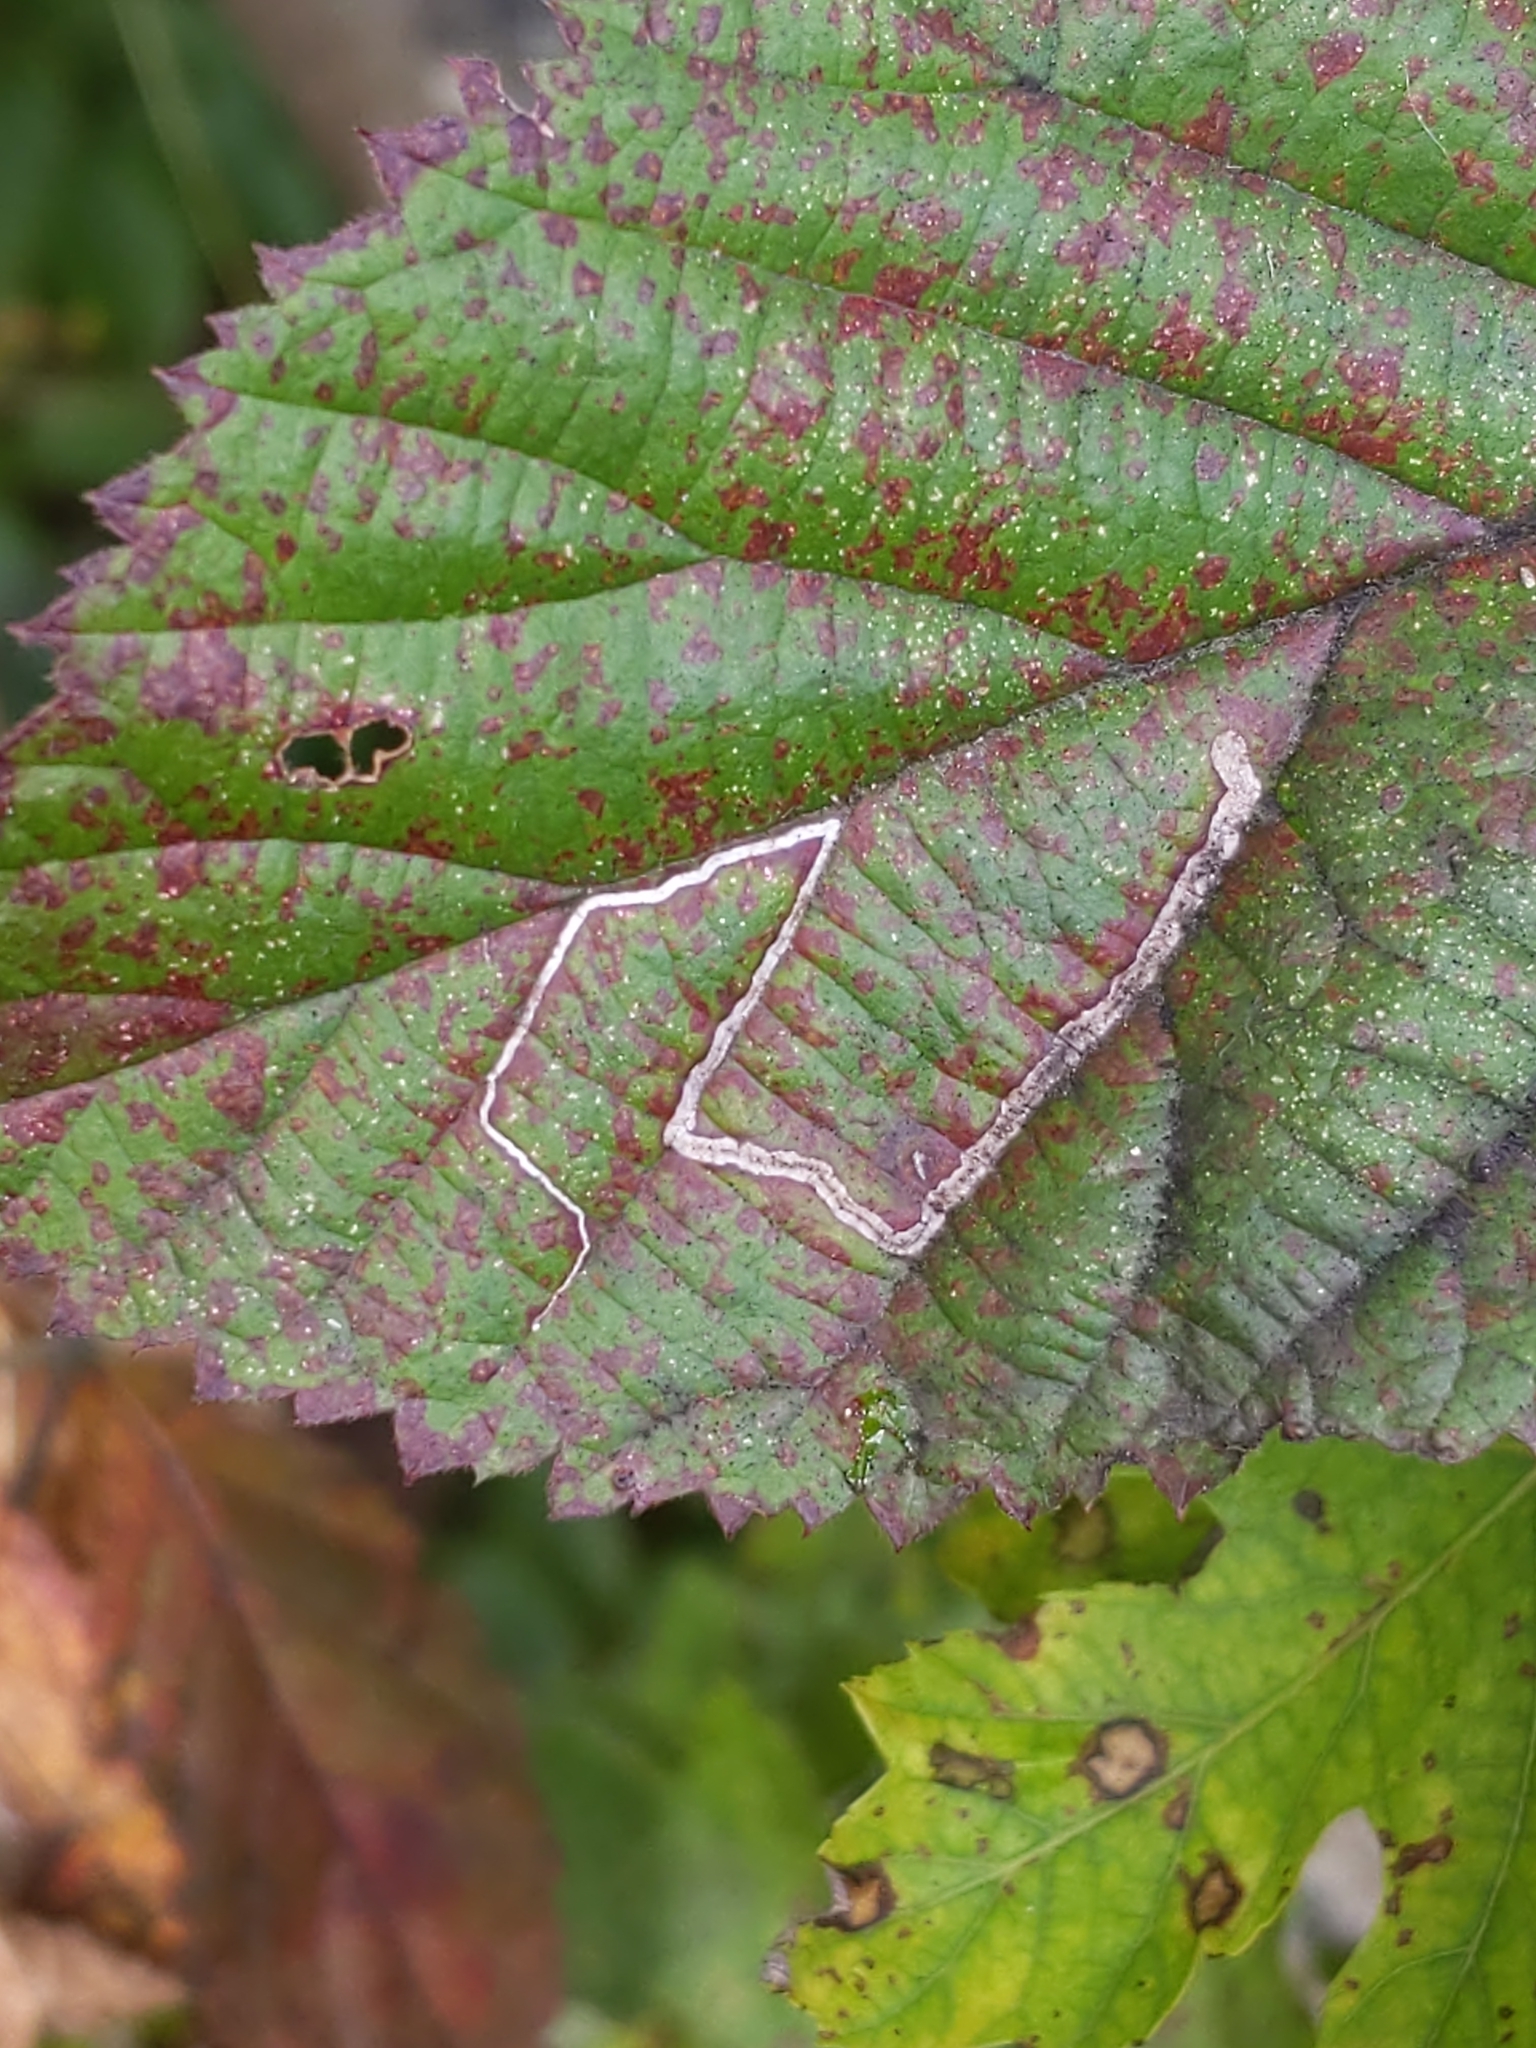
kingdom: Animalia
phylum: Arthropoda
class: Insecta
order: Lepidoptera
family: Nepticulidae
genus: Stigmella
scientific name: Stigmella villosella
